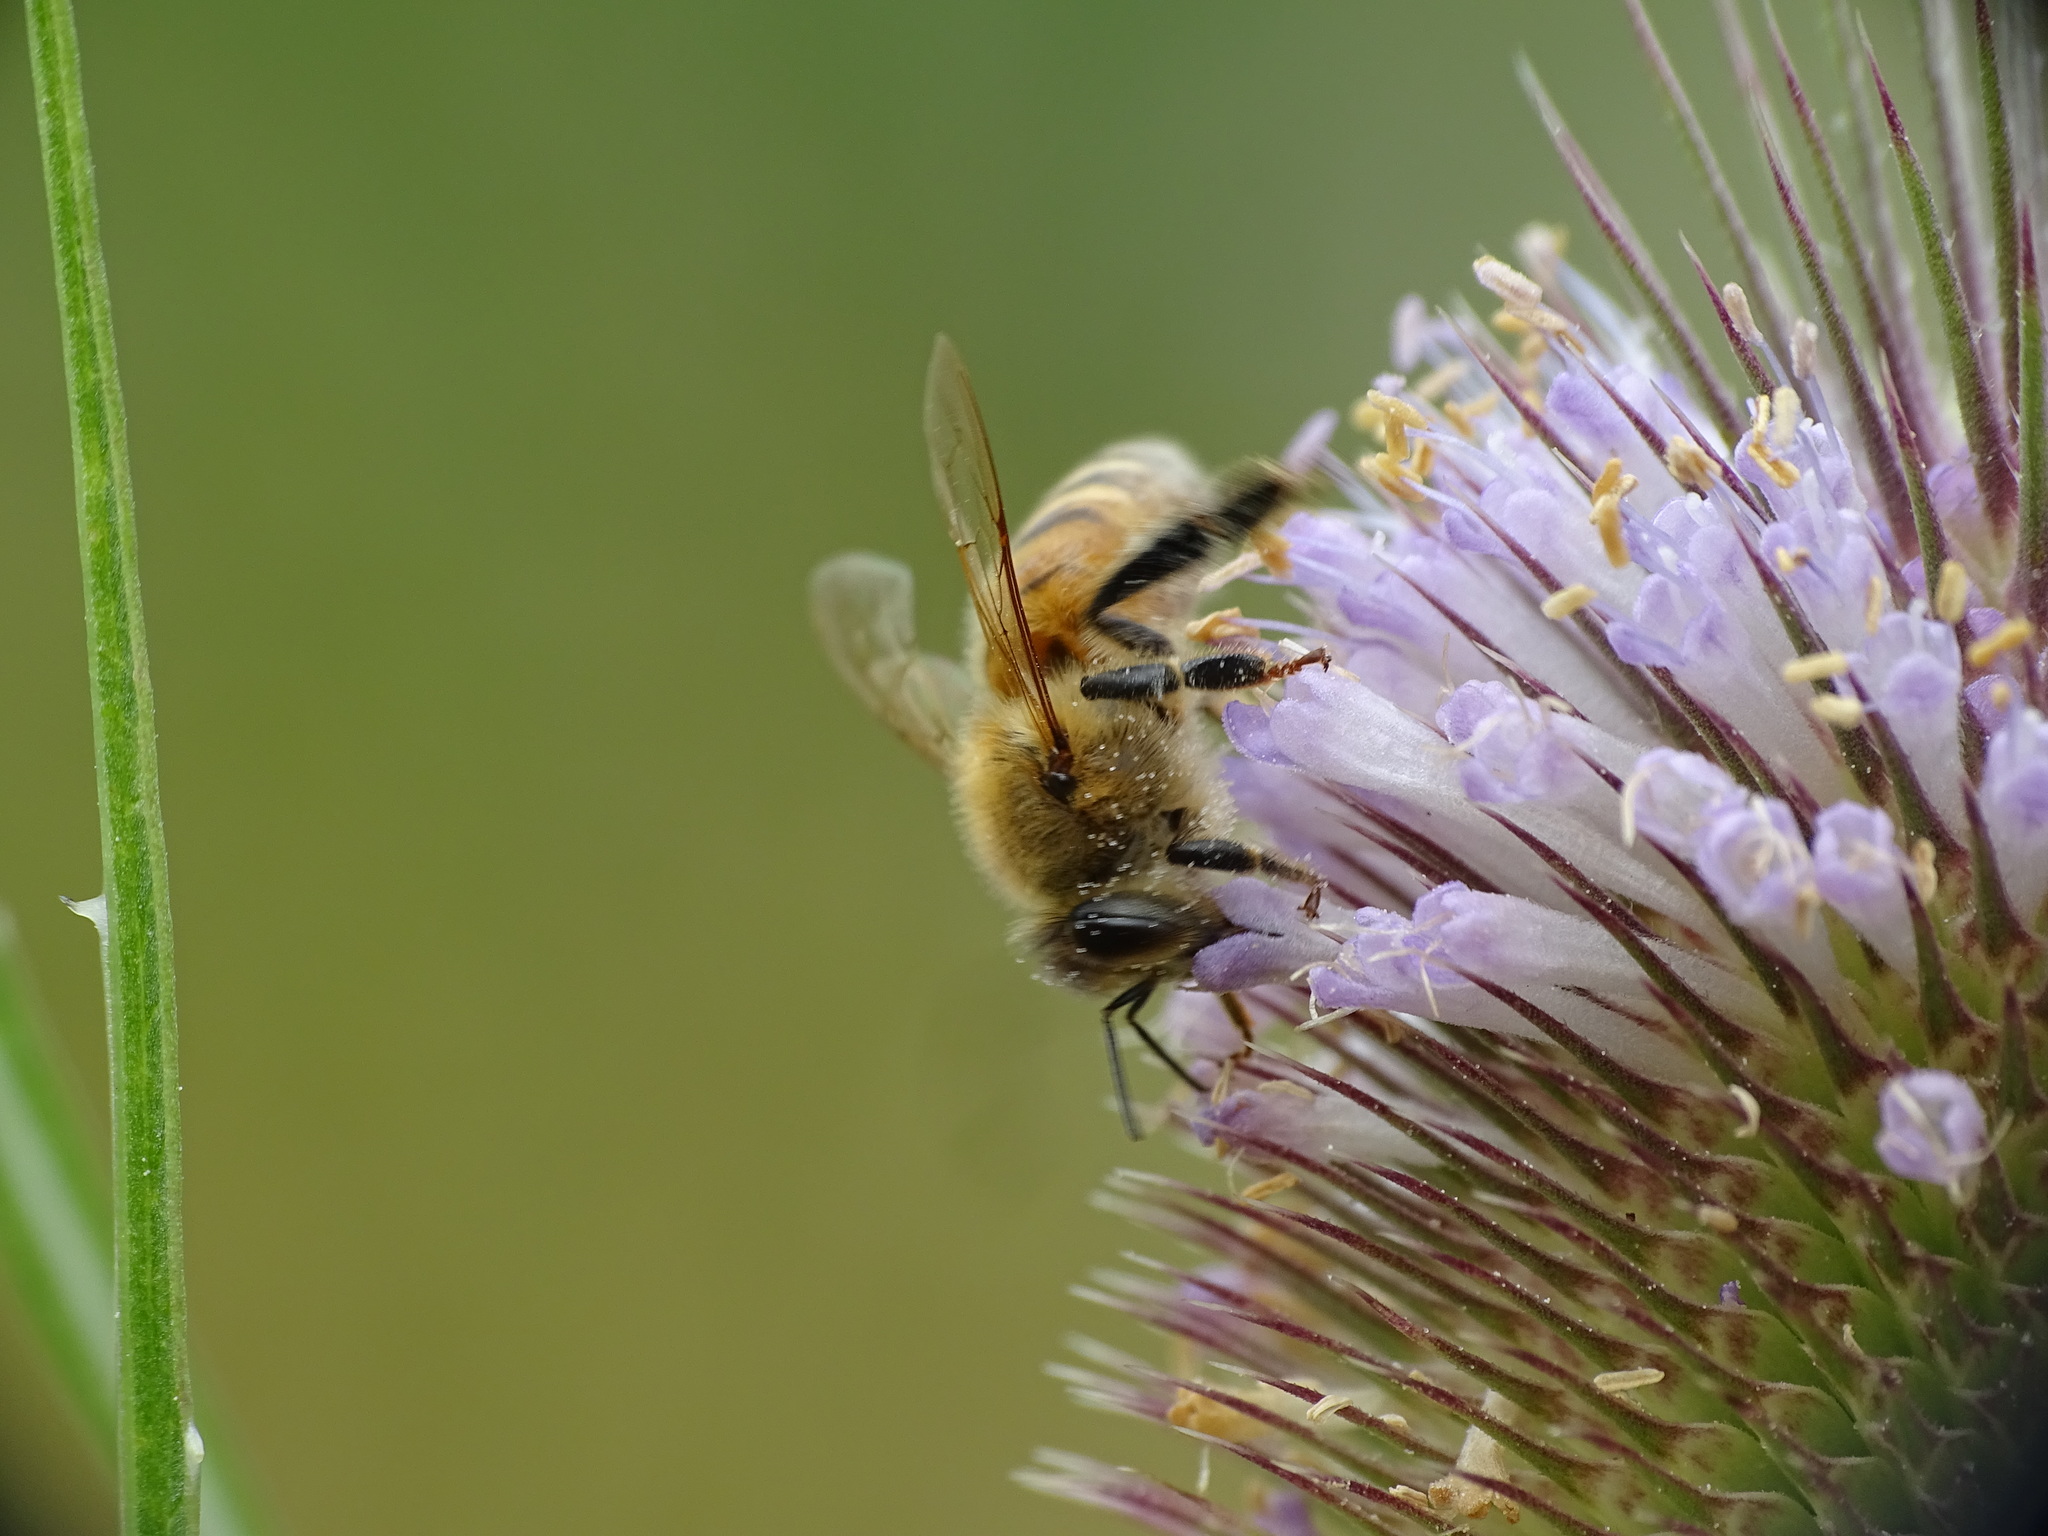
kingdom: Animalia
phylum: Arthropoda
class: Insecta
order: Hymenoptera
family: Apidae
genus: Apis
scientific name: Apis mellifera
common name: Honey bee
